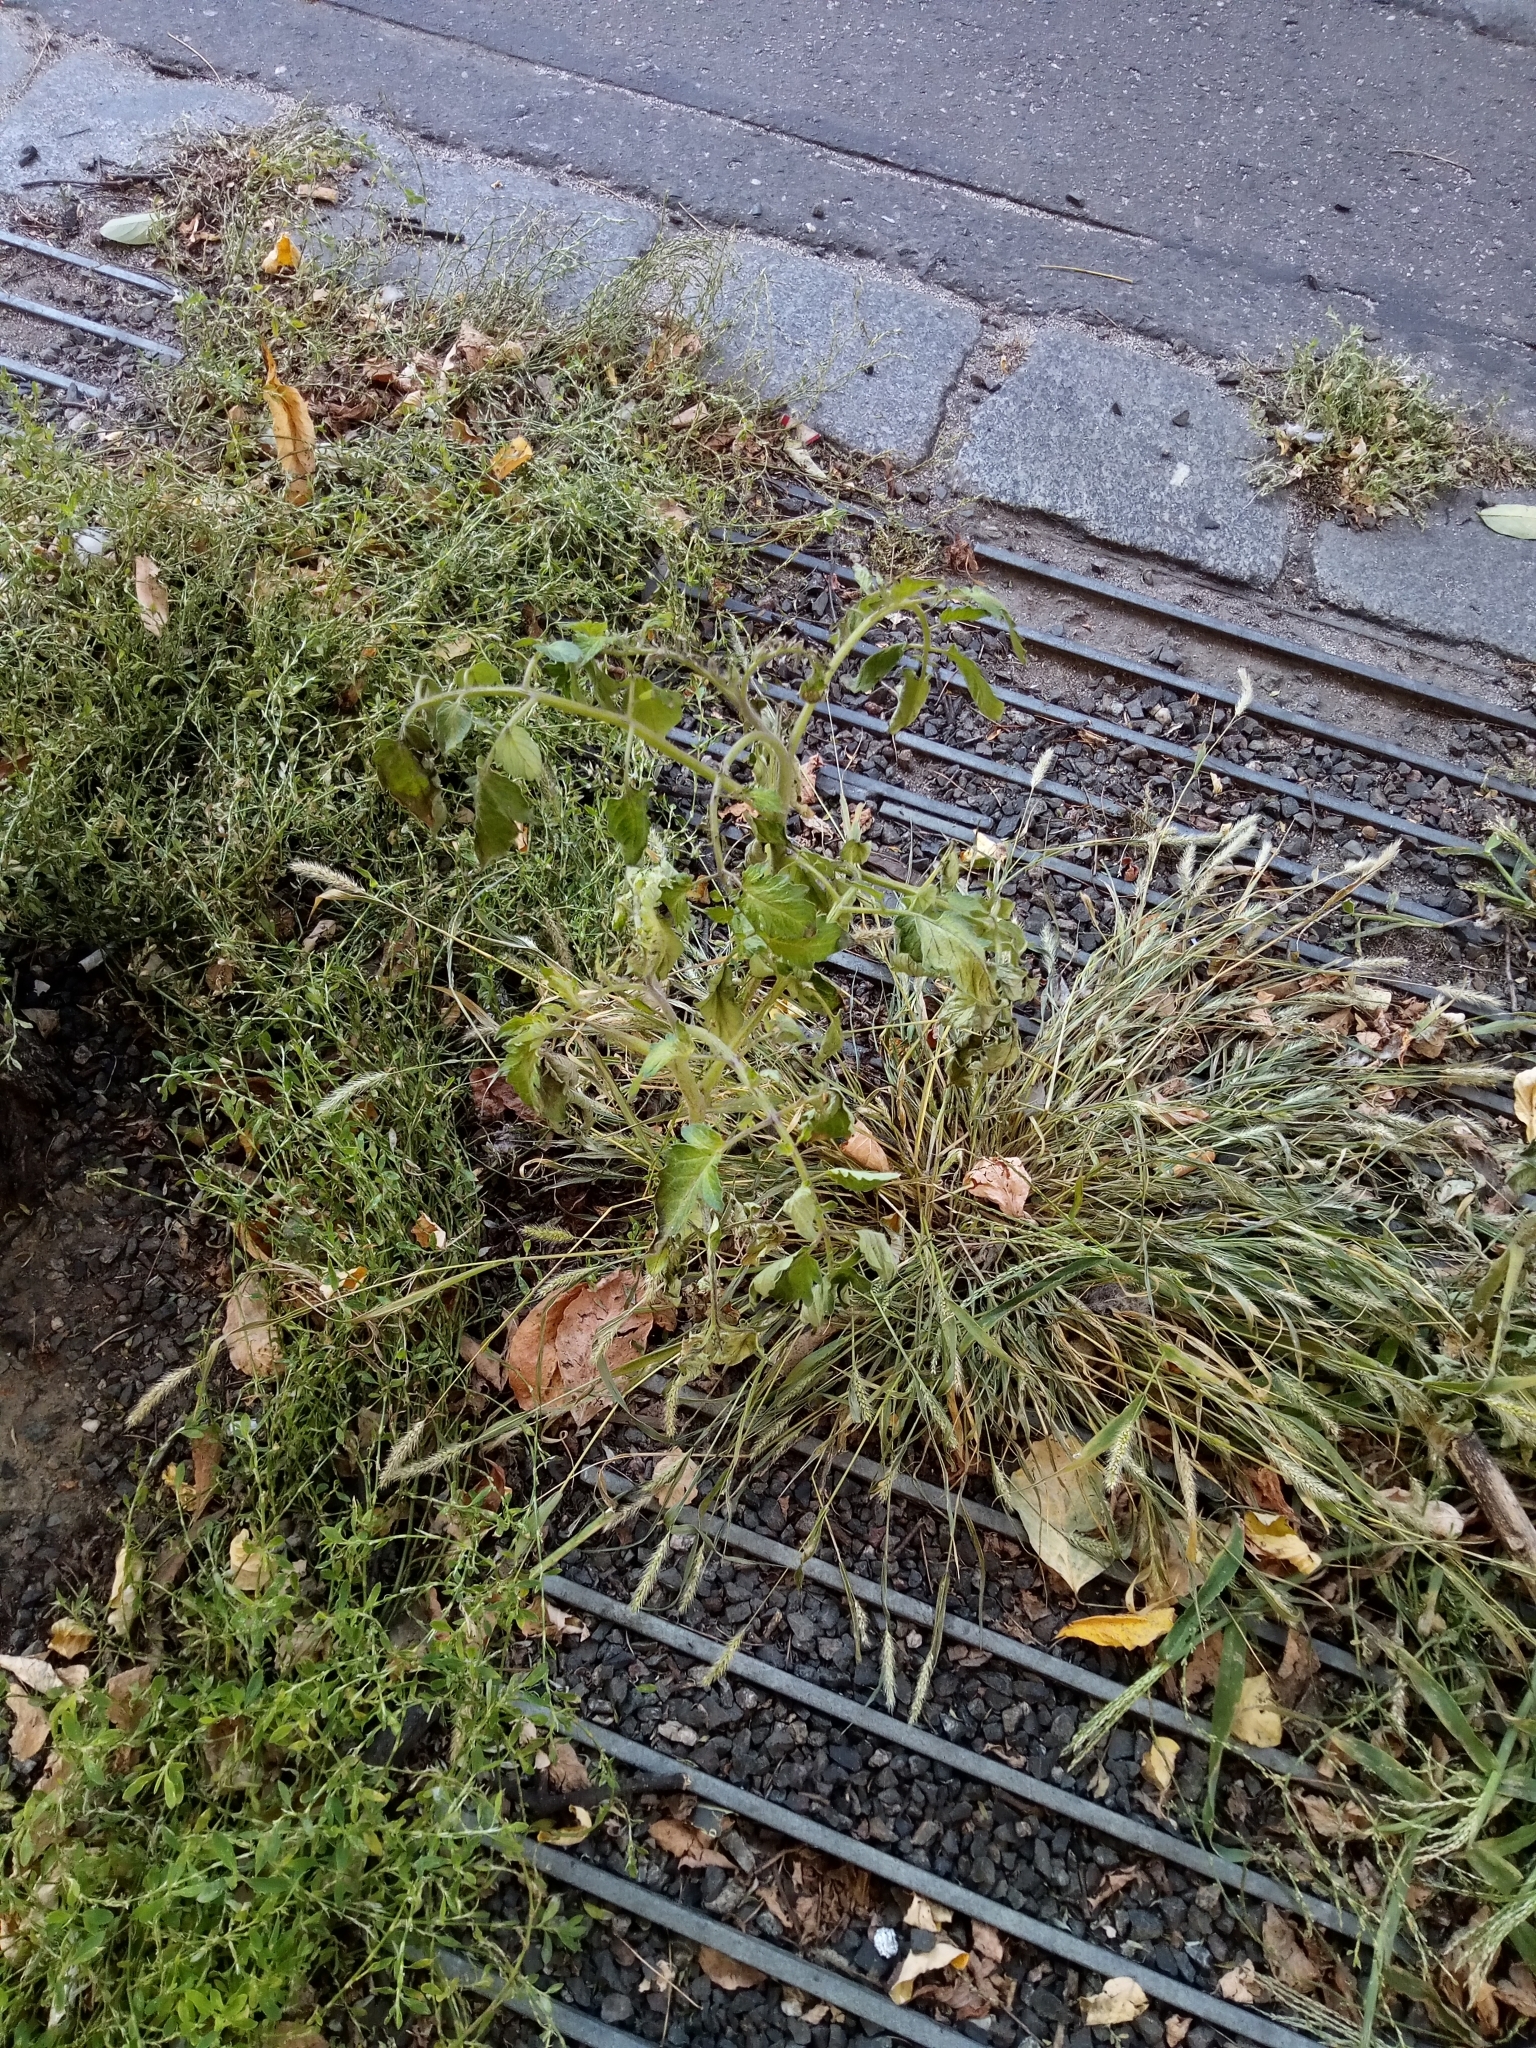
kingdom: Plantae
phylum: Tracheophyta
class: Magnoliopsida
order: Solanales
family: Solanaceae
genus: Solanum
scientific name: Solanum lycopersicum
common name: Garden tomato
